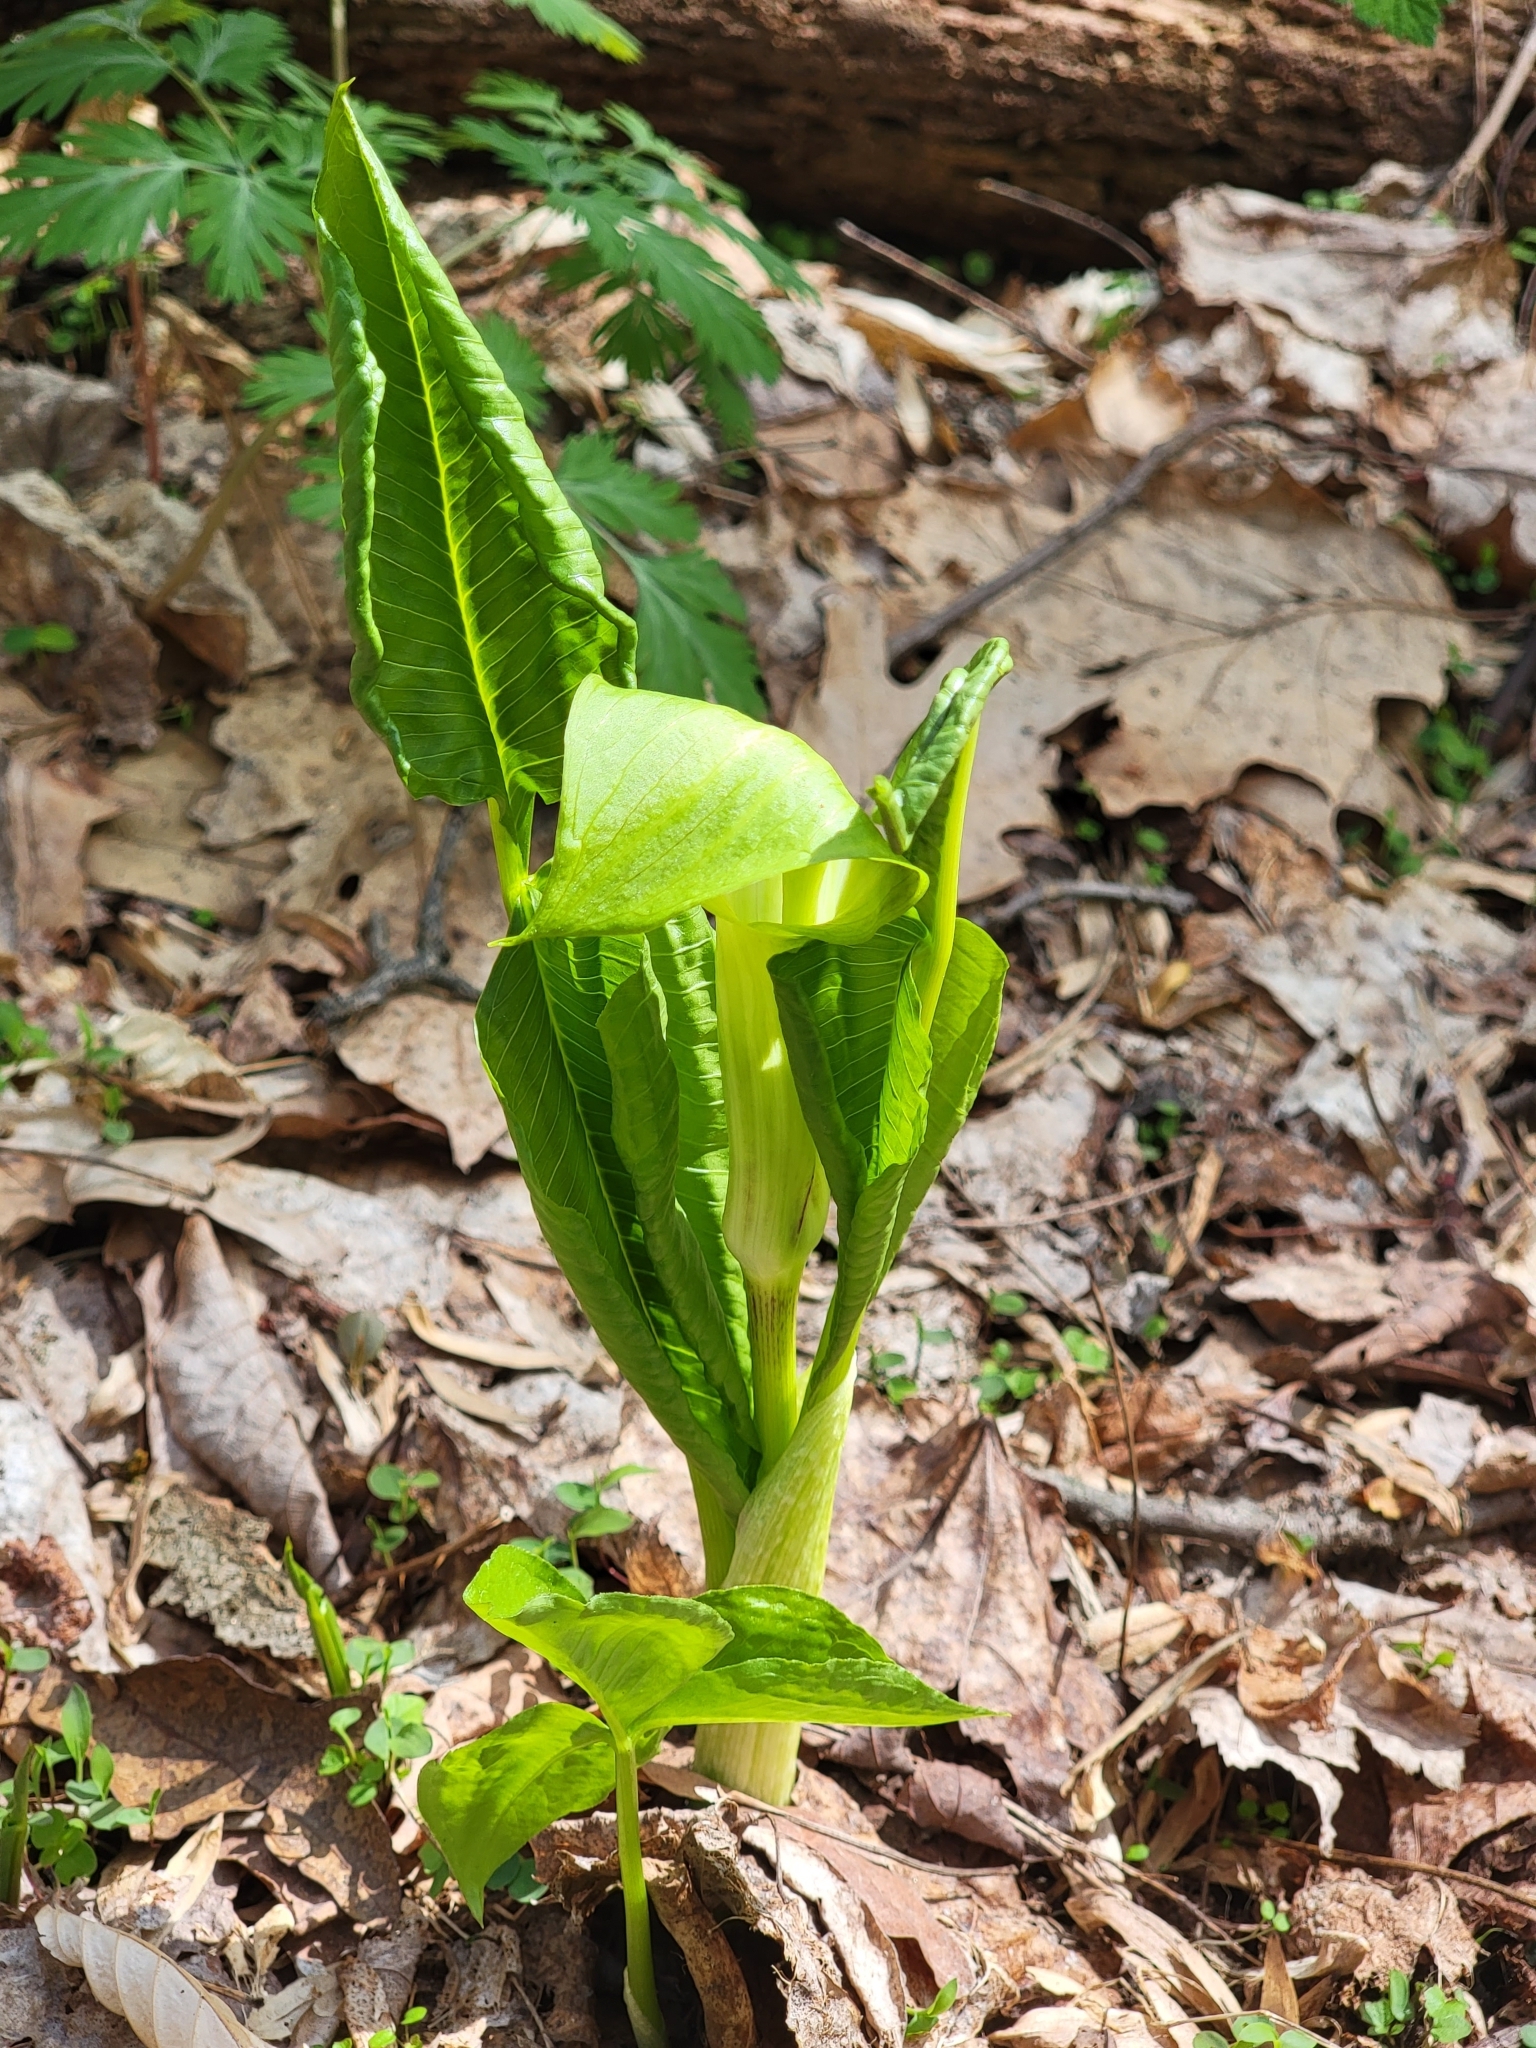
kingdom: Plantae
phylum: Tracheophyta
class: Liliopsida
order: Alismatales
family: Araceae
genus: Arisaema
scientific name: Arisaema triphyllum
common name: Jack-in-the-pulpit
